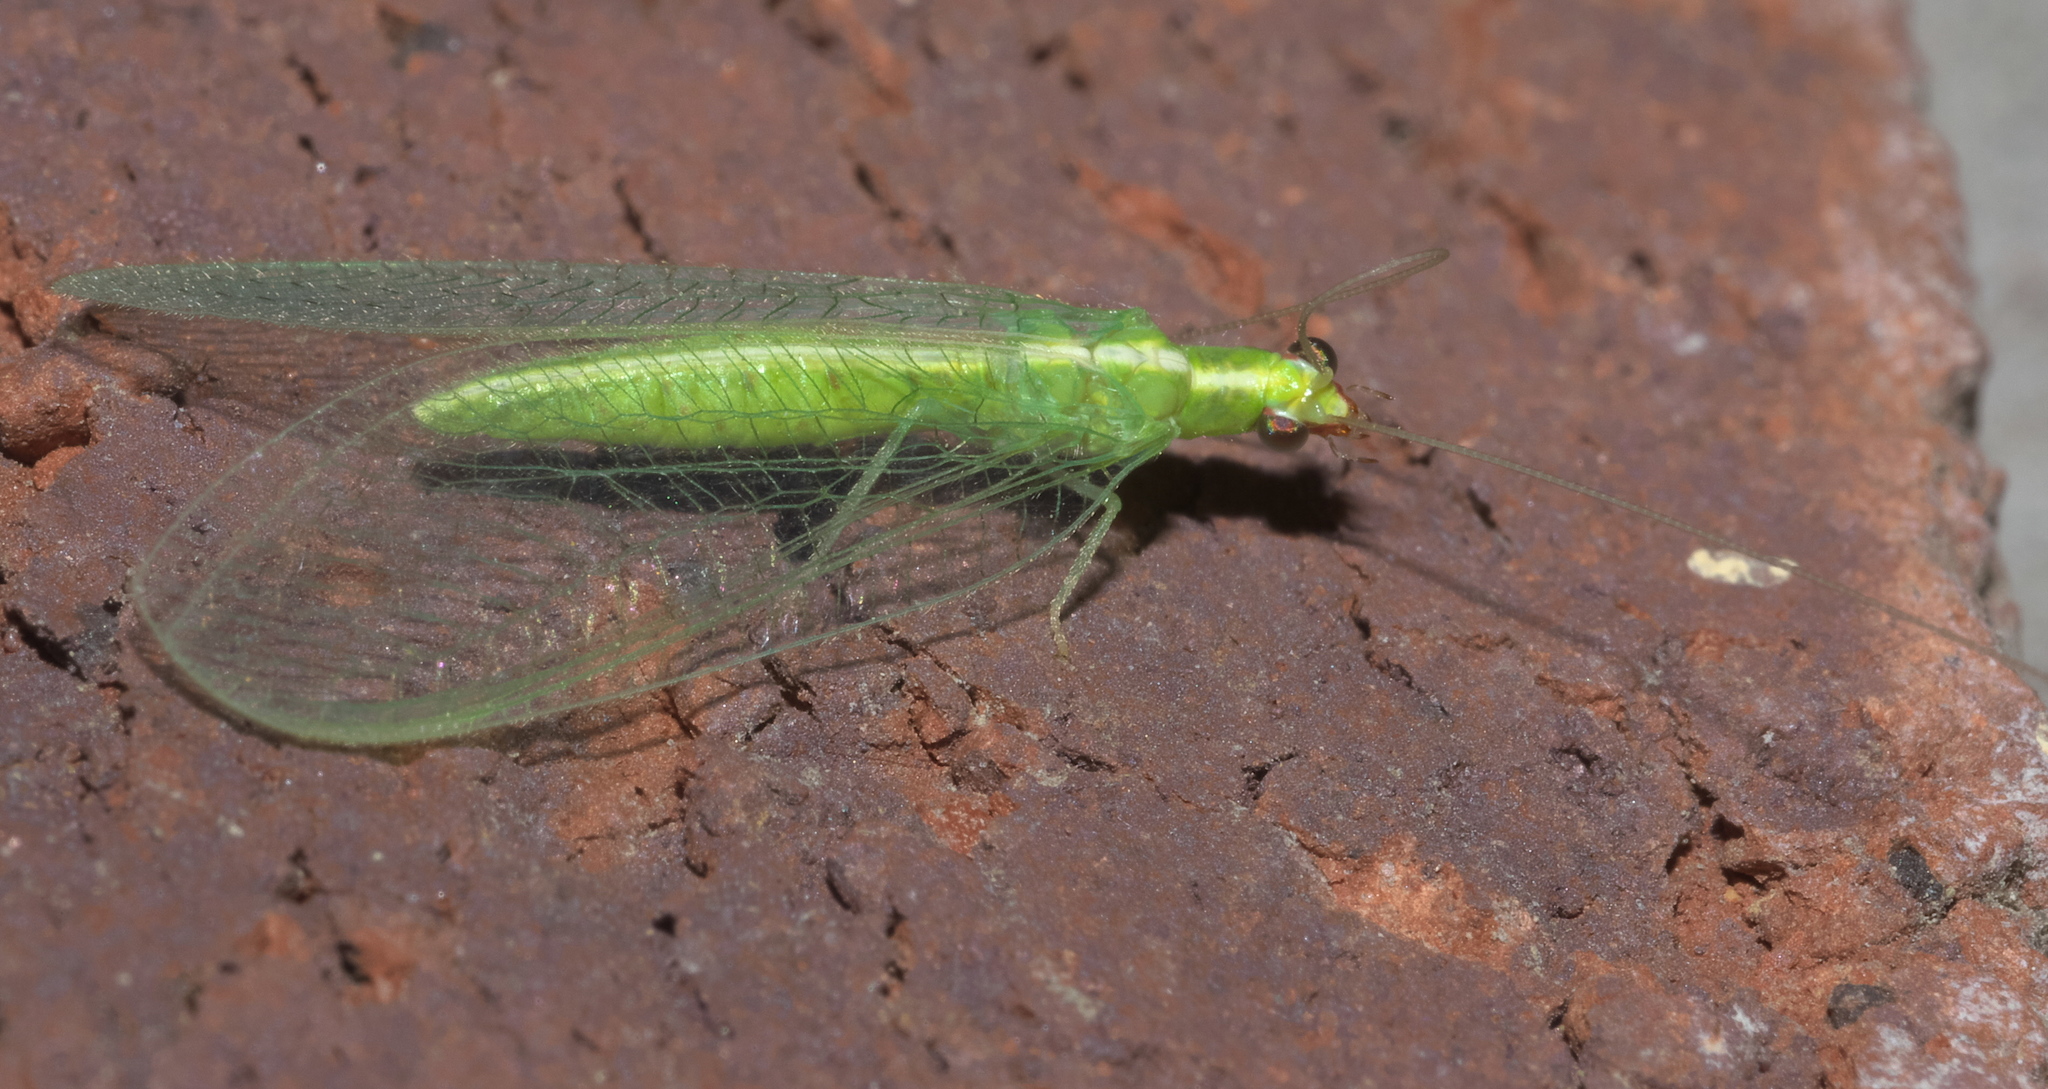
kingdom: Animalia
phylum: Arthropoda
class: Insecta
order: Neuroptera
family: Chrysopidae
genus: Chrysoperla
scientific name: Chrysoperla rufilabris
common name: Red-lipped green lacewing
